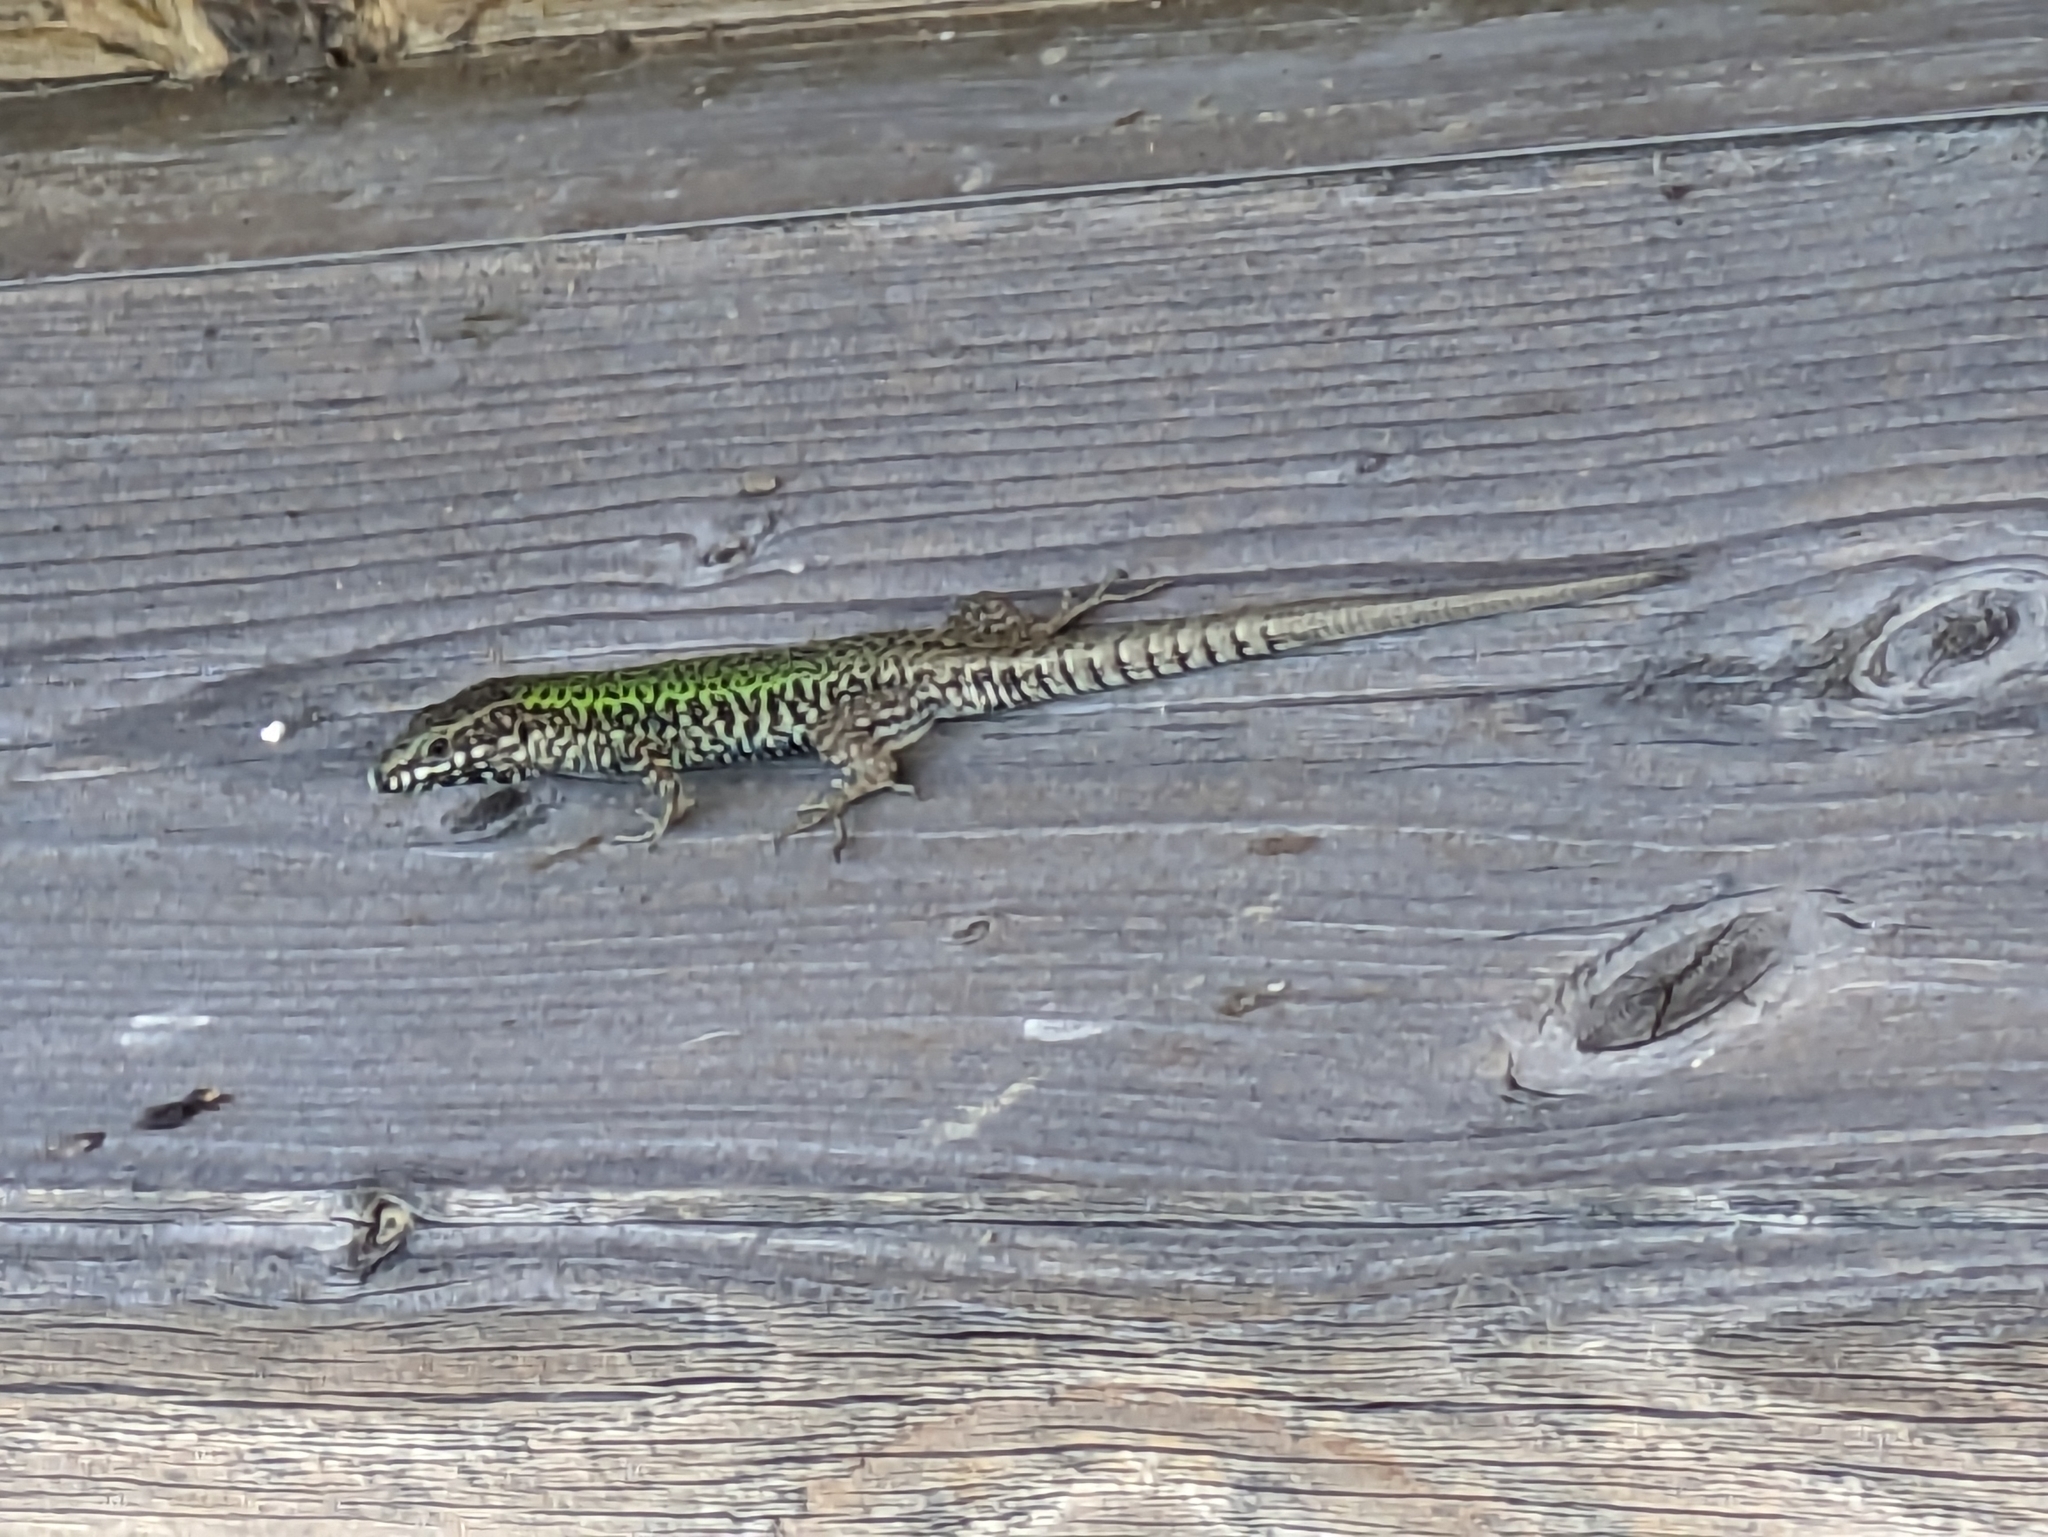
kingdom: Animalia
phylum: Chordata
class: Squamata
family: Lacertidae
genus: Podarcis
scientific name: Podarcis muralis
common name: Common wall lizard
